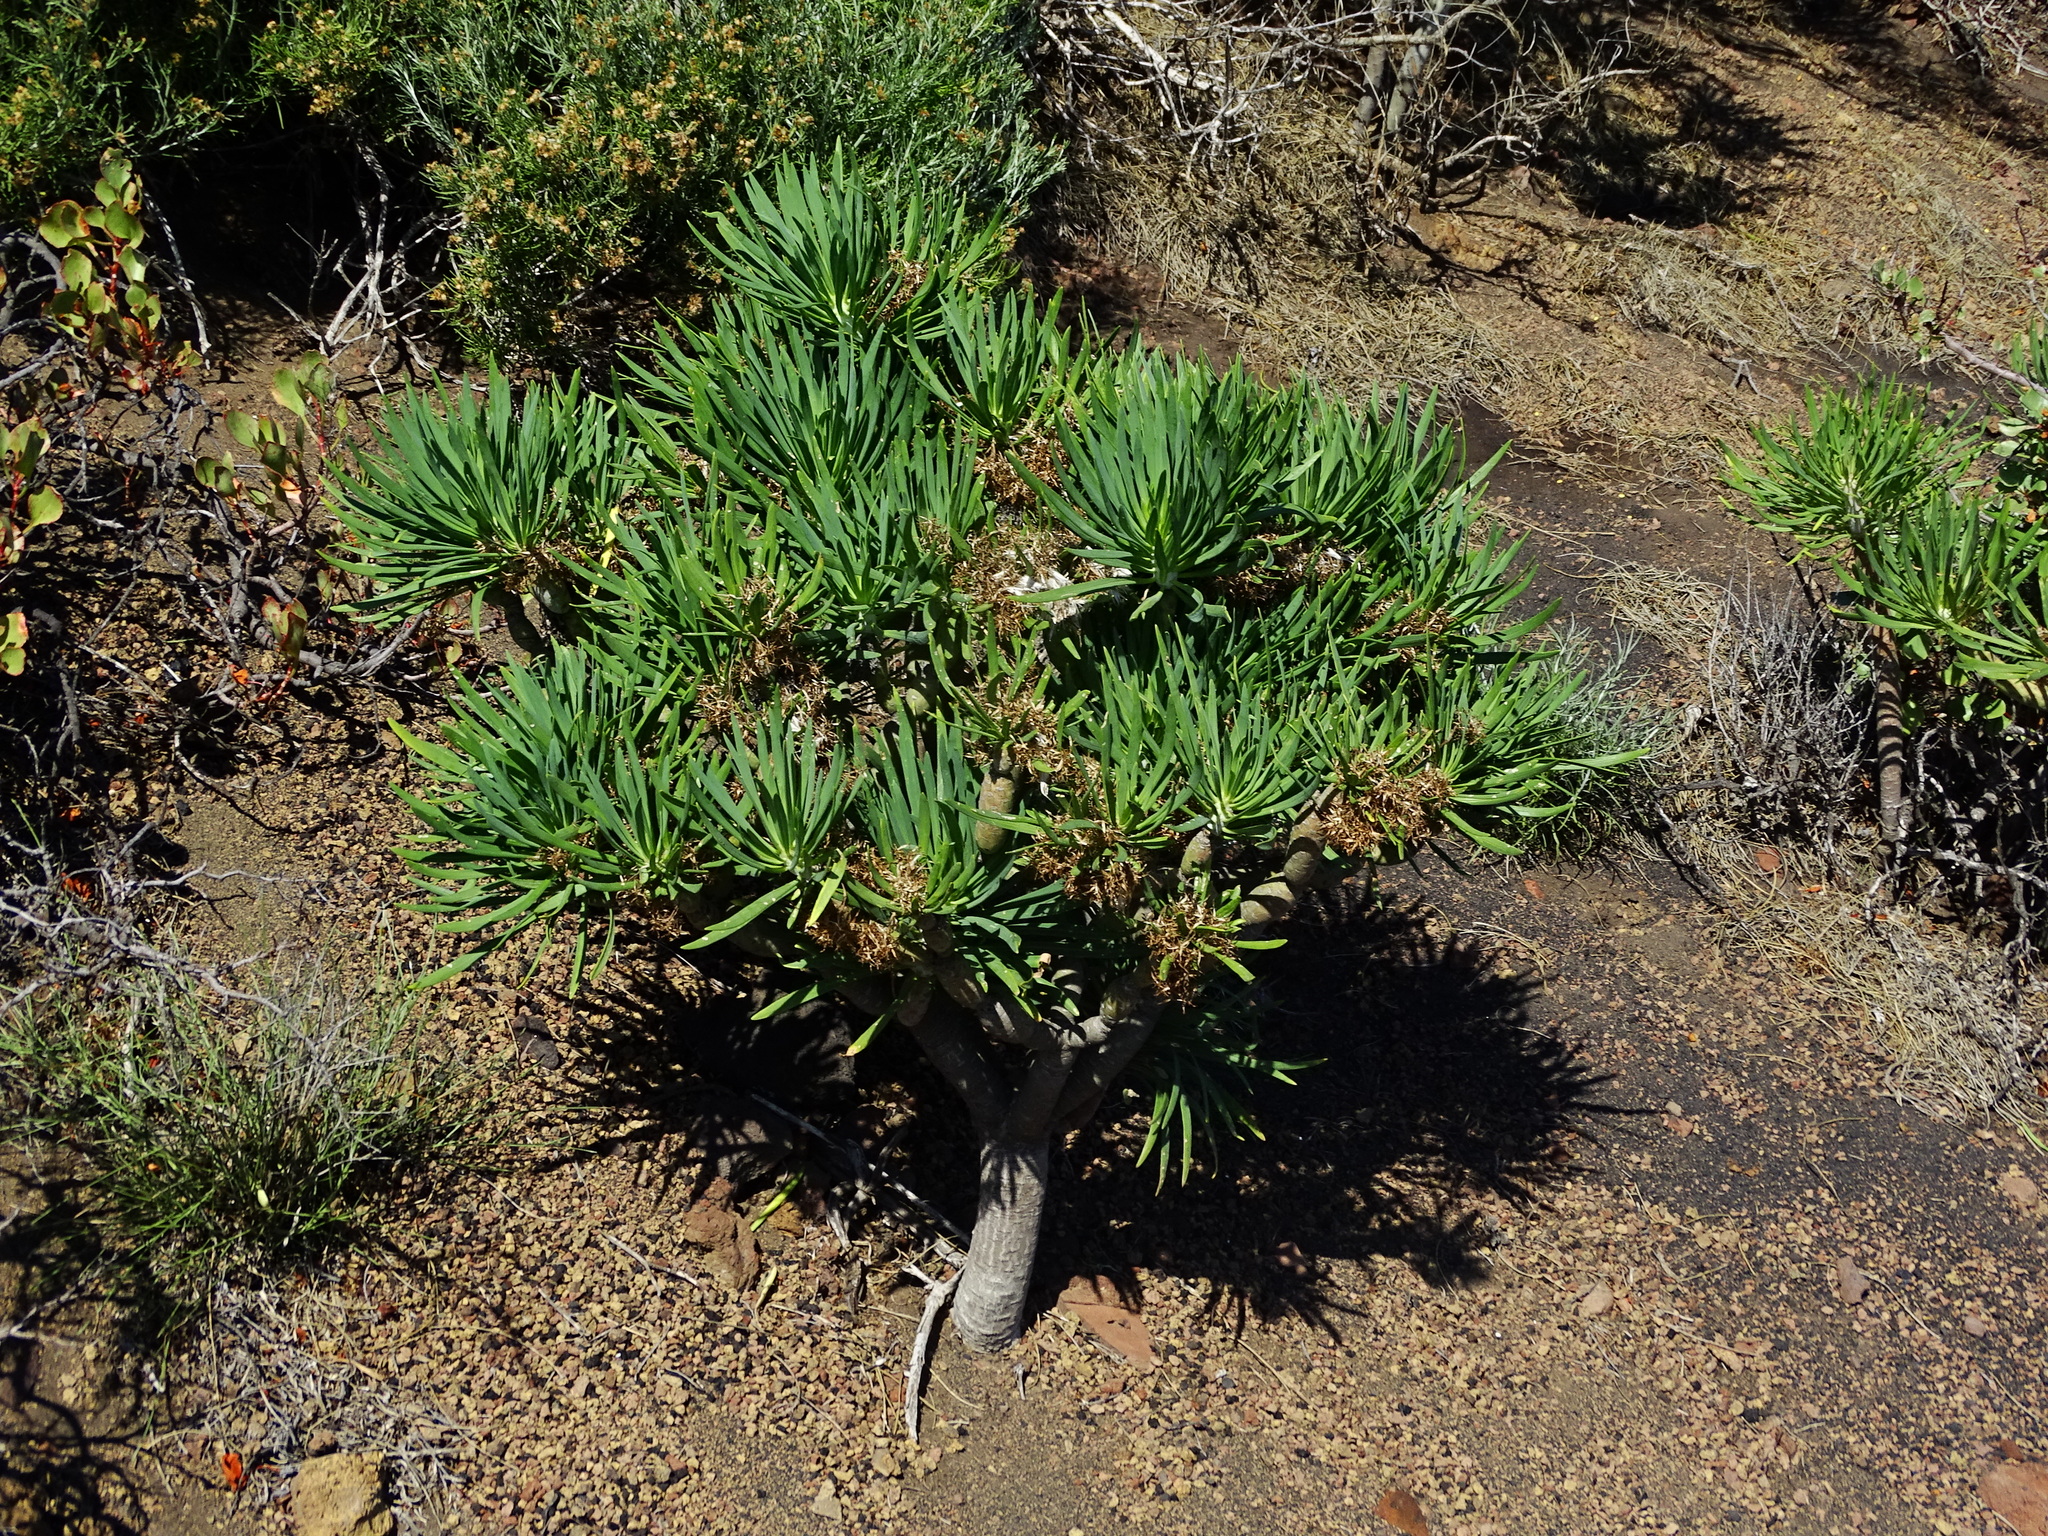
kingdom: Plantae
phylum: Tracheophyta
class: Magnoliopsida
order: Asterales
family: Asteraceae
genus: Kleinia
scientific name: Kleinia neriifolia
